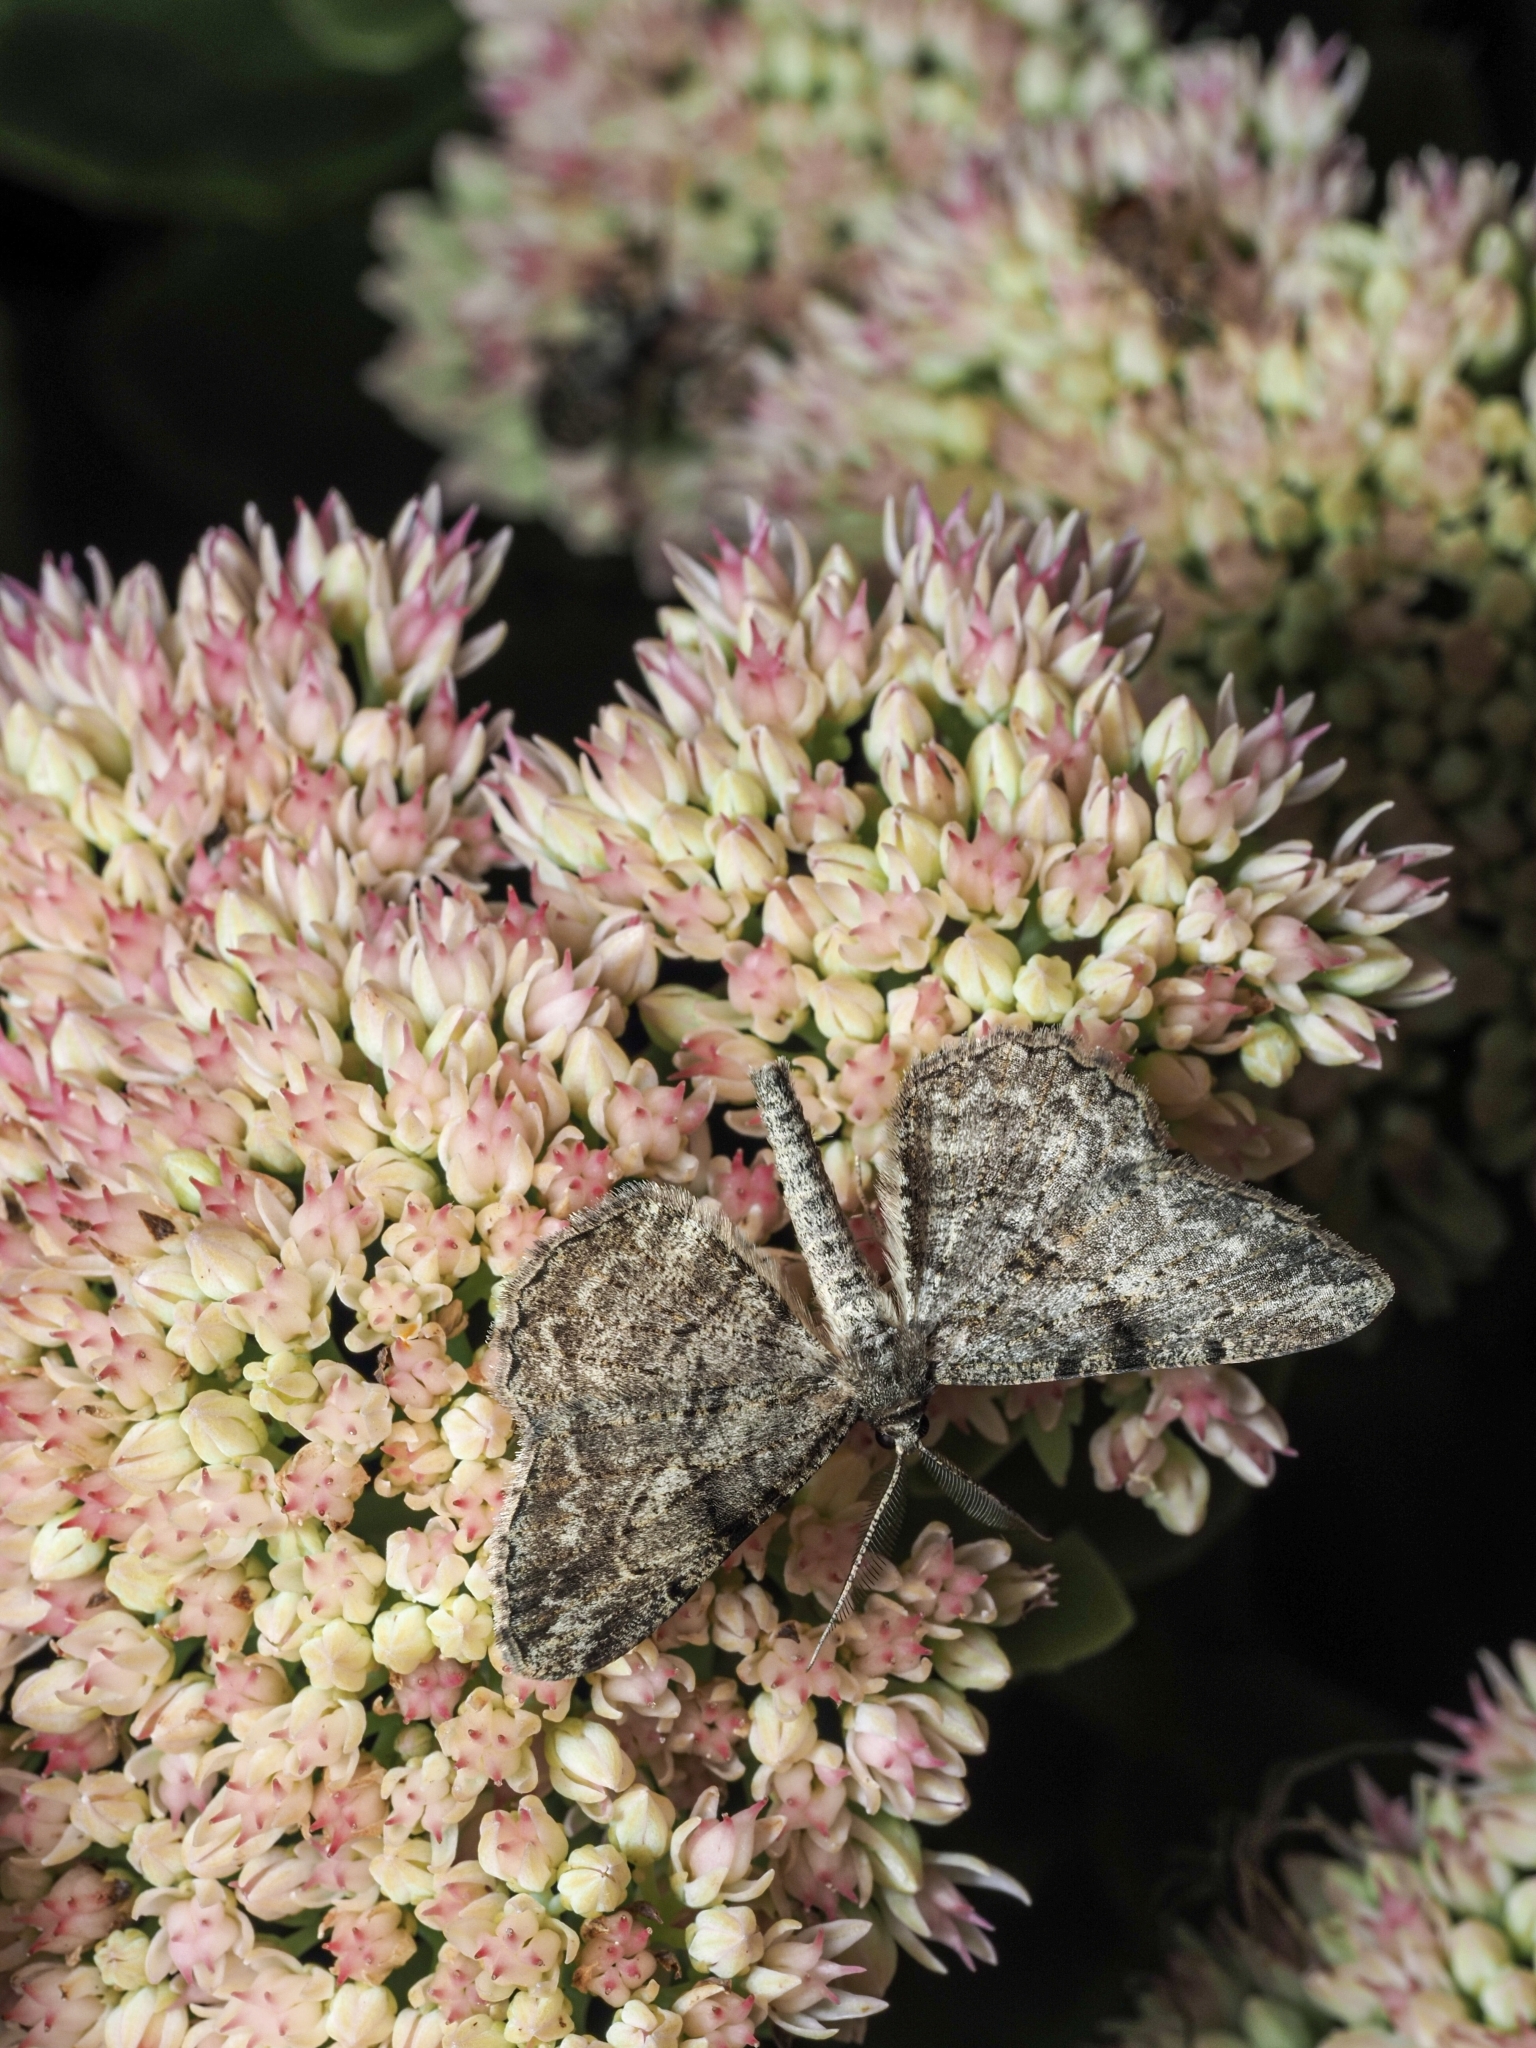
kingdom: Animalia
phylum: Arthropoda
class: Insecta
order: Lepidoptera
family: Geometridae
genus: Peribatodes
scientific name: Peribatodes rhomboidaria
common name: Willow beauty
